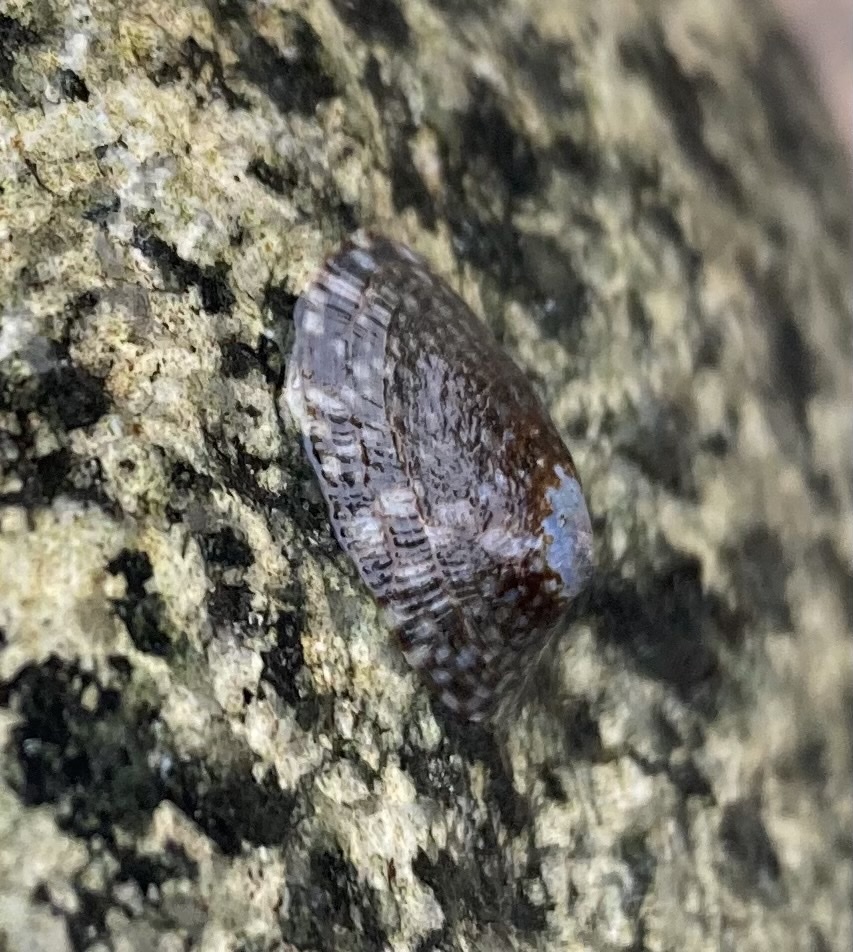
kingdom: Animalia
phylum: Mollusca
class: Gastropoda
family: Lottiidae
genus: Lottia
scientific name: Lottia persona
